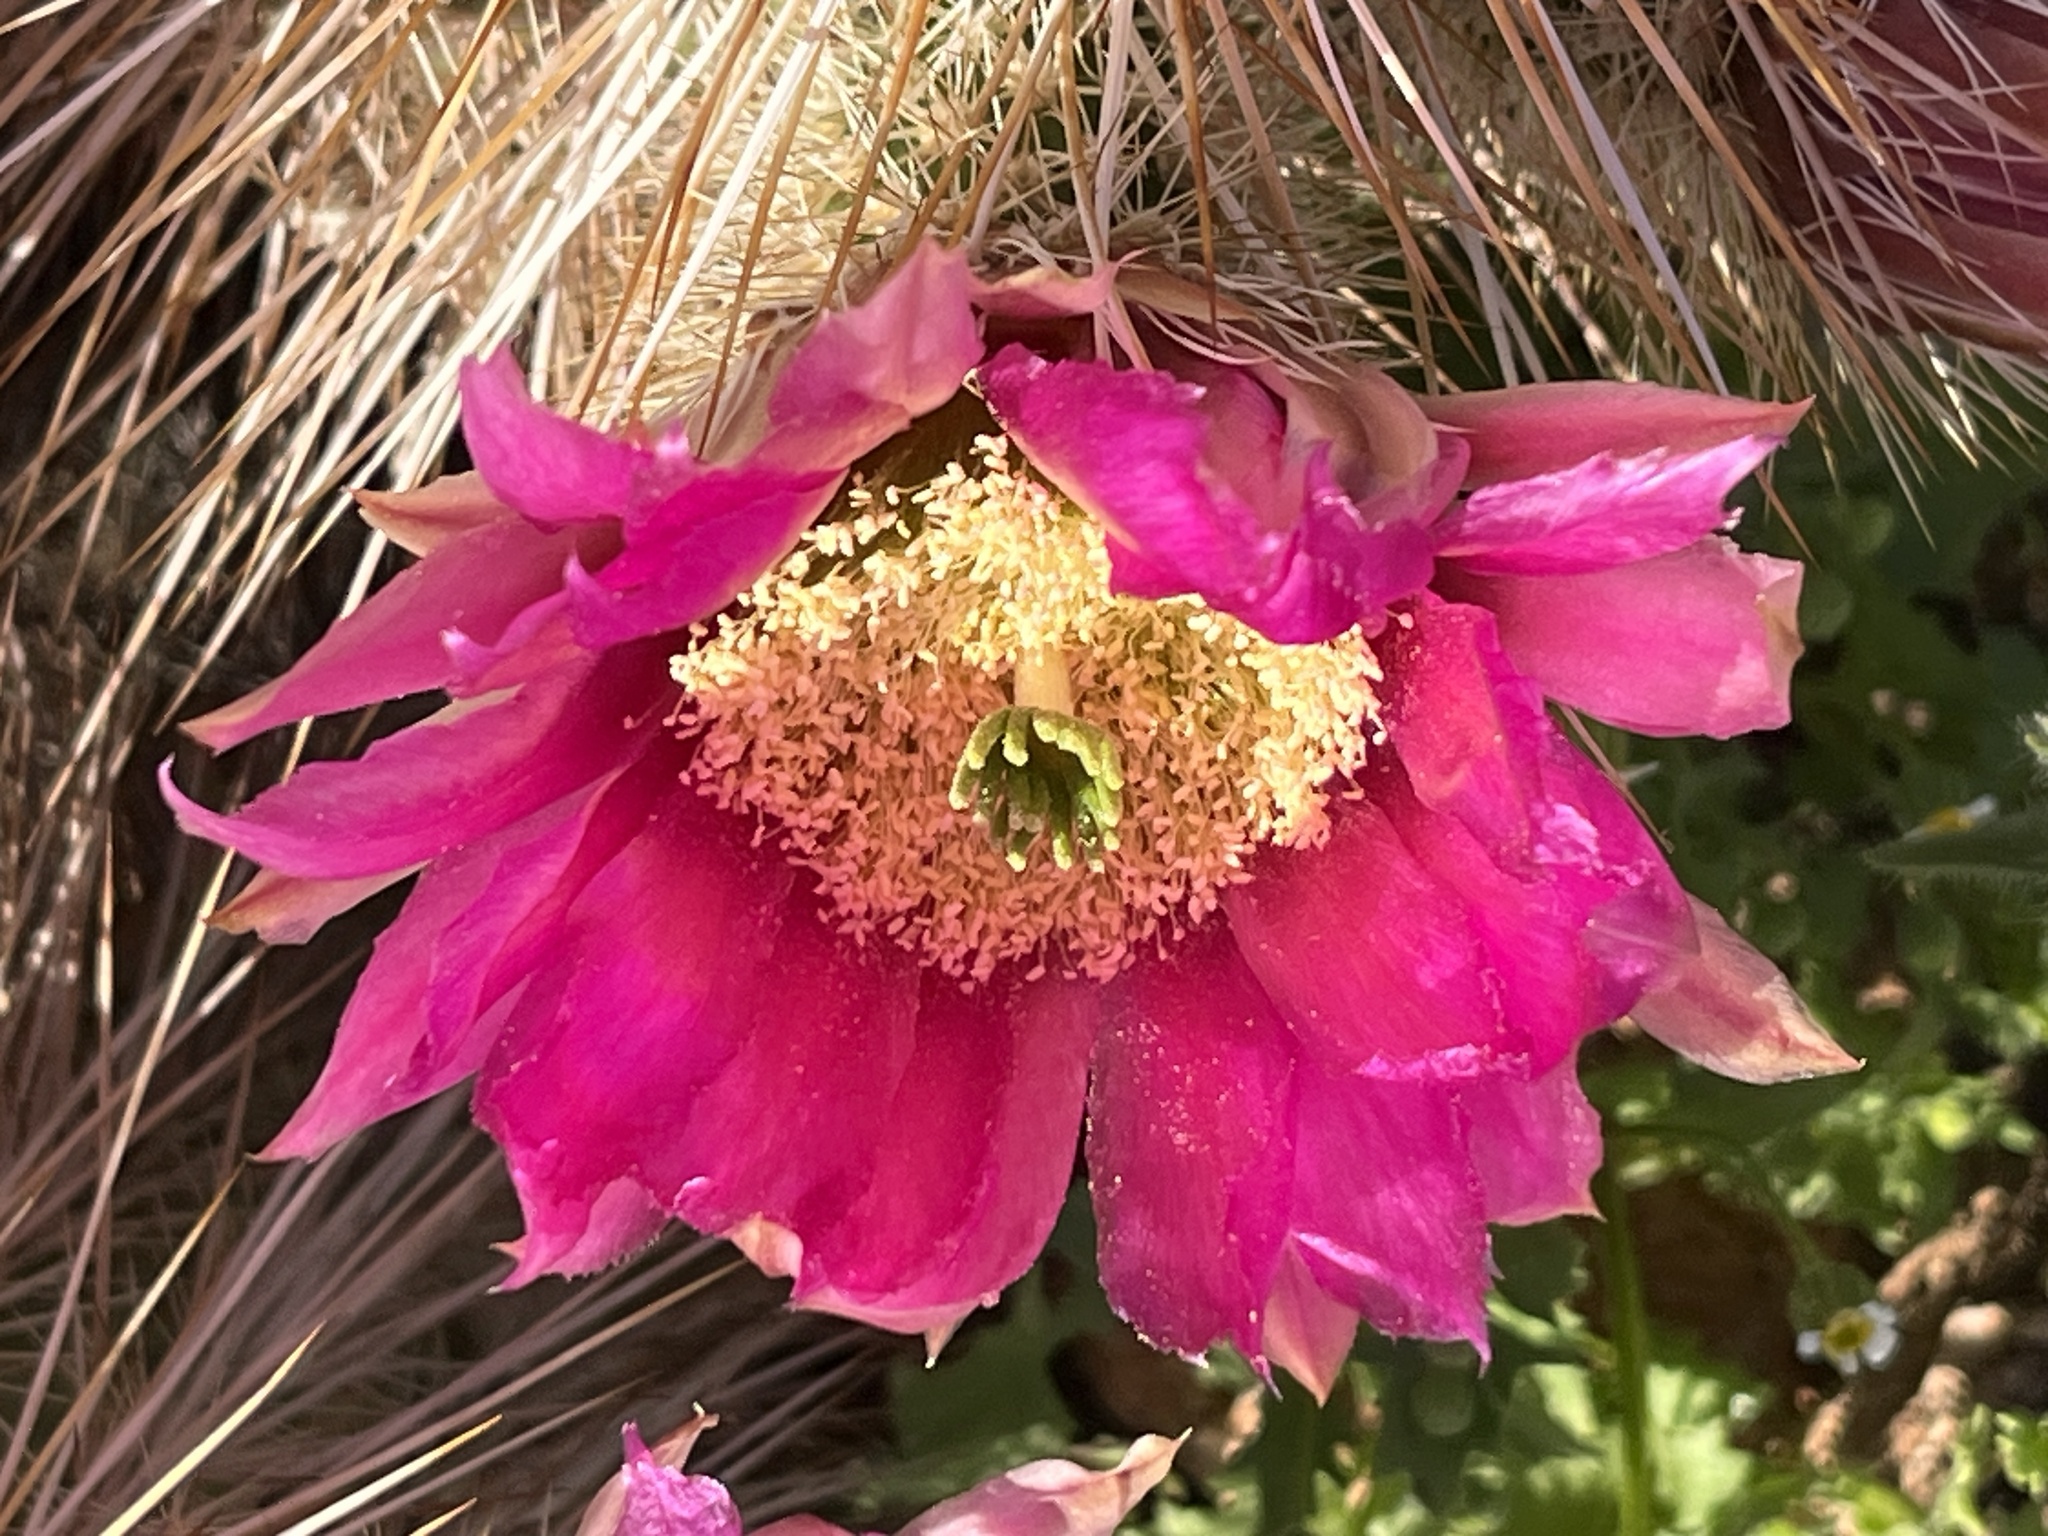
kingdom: Plantae
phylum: Tracheophyta
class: Magnoliopsida
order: Caryophyllales
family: Cactaceae
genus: Echinocereus
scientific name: Echinocereus engelmannii
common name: Engelmann's hedgehog cactus
